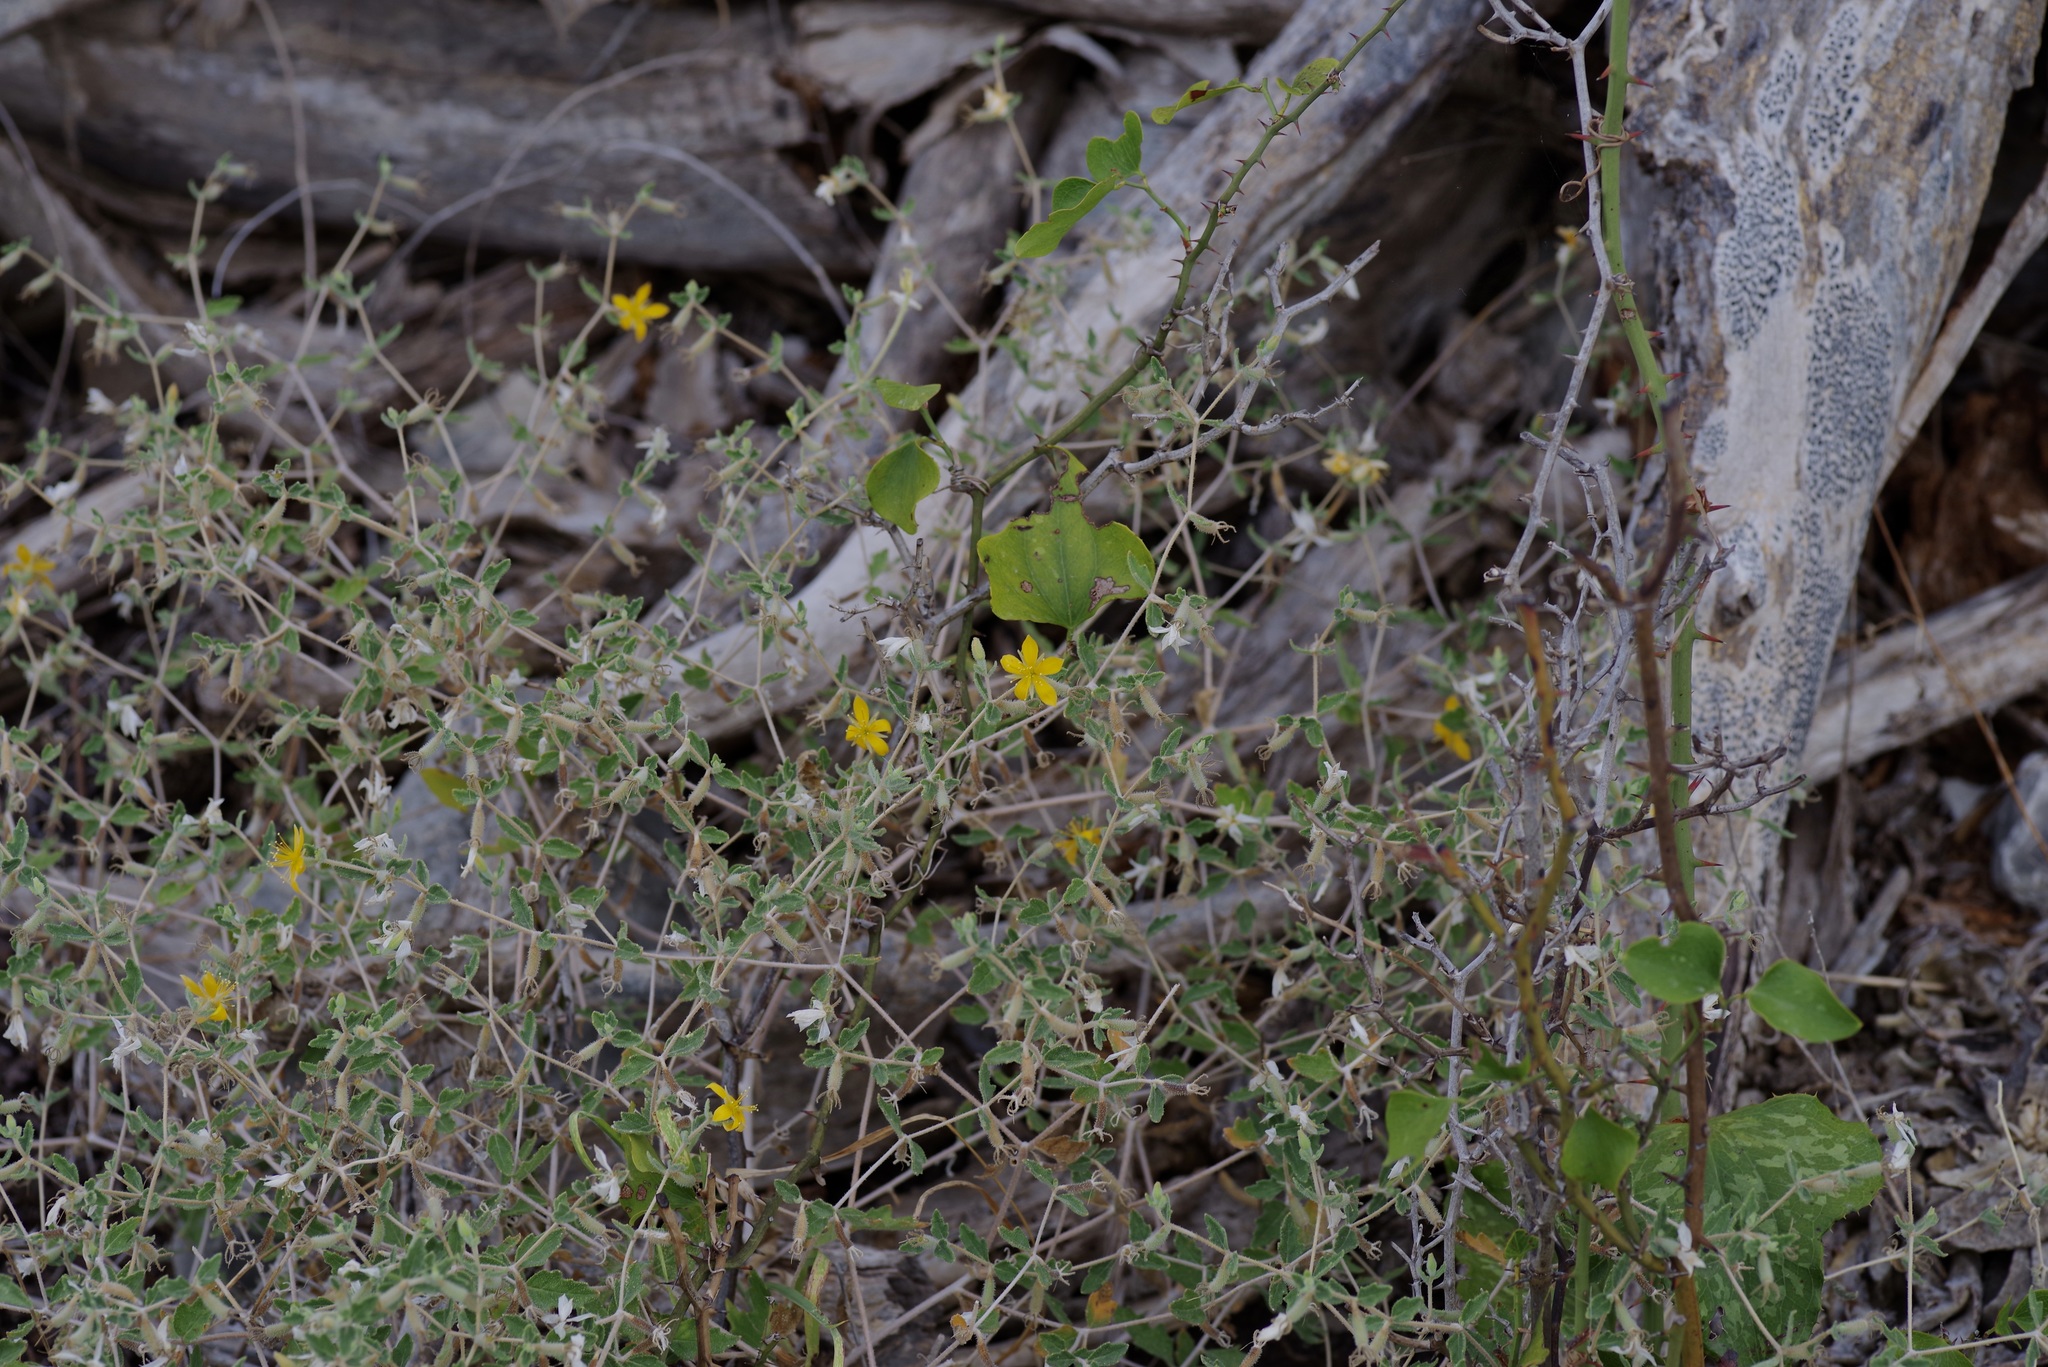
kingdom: Plantae
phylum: Tracheophyta
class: Magnoliopsida
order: Cornales
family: Loasaceae
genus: Mentzelia
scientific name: Mentzelia oligosperma
